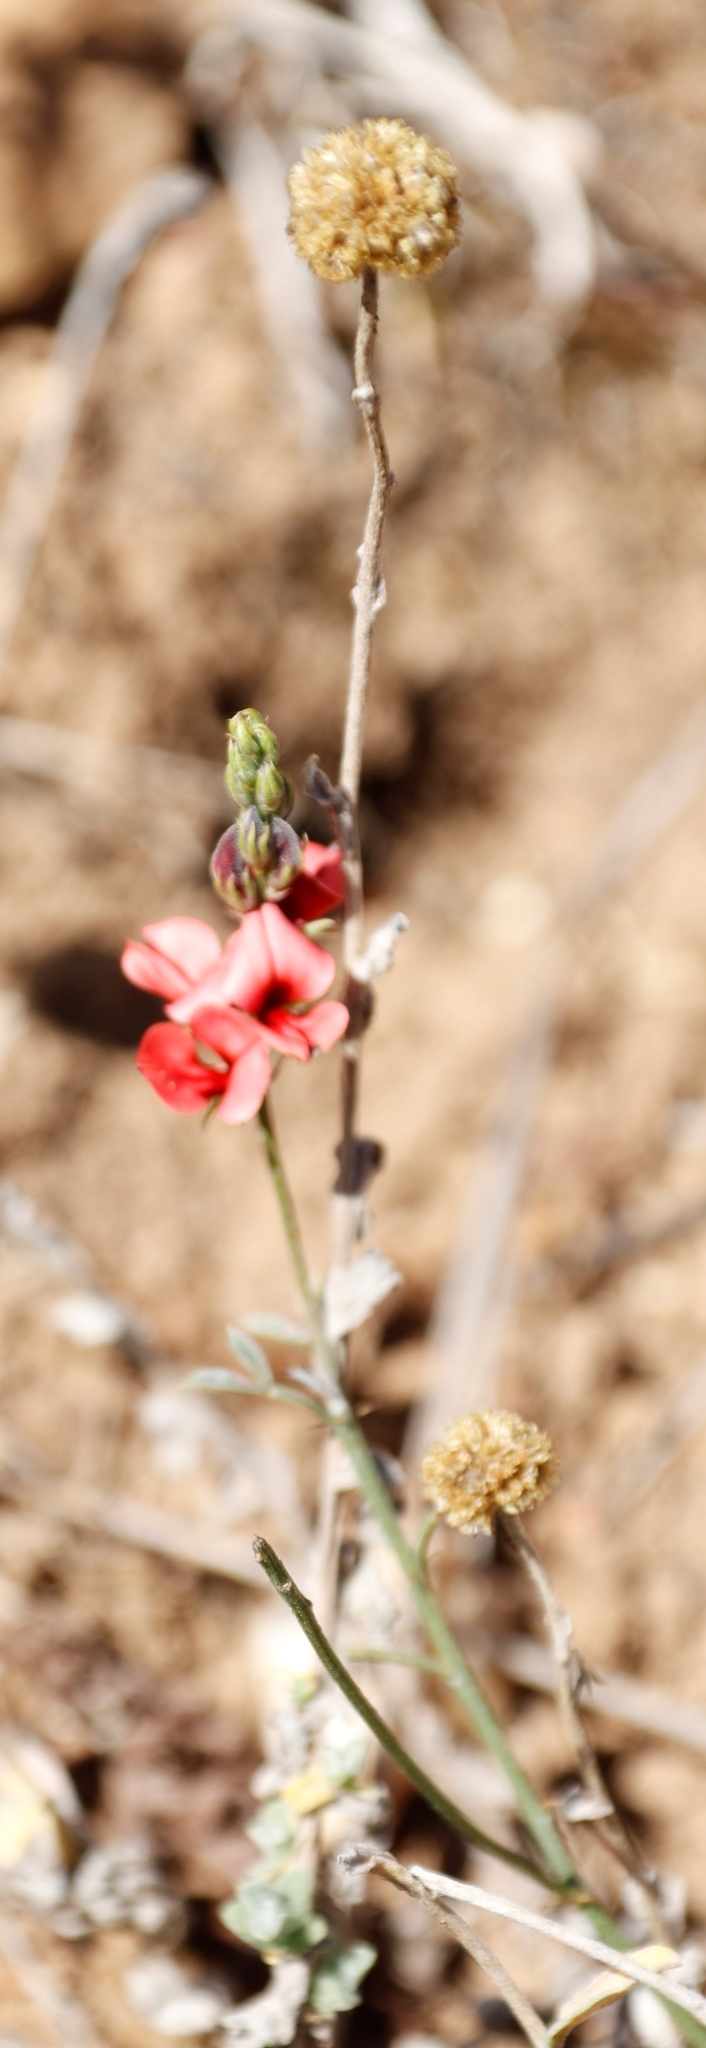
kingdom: Plantae
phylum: Tracheophyta
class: Magnoliopsida
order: Fabales
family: Fabaceae
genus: Indigofera
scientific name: Indigofera heterophylla
